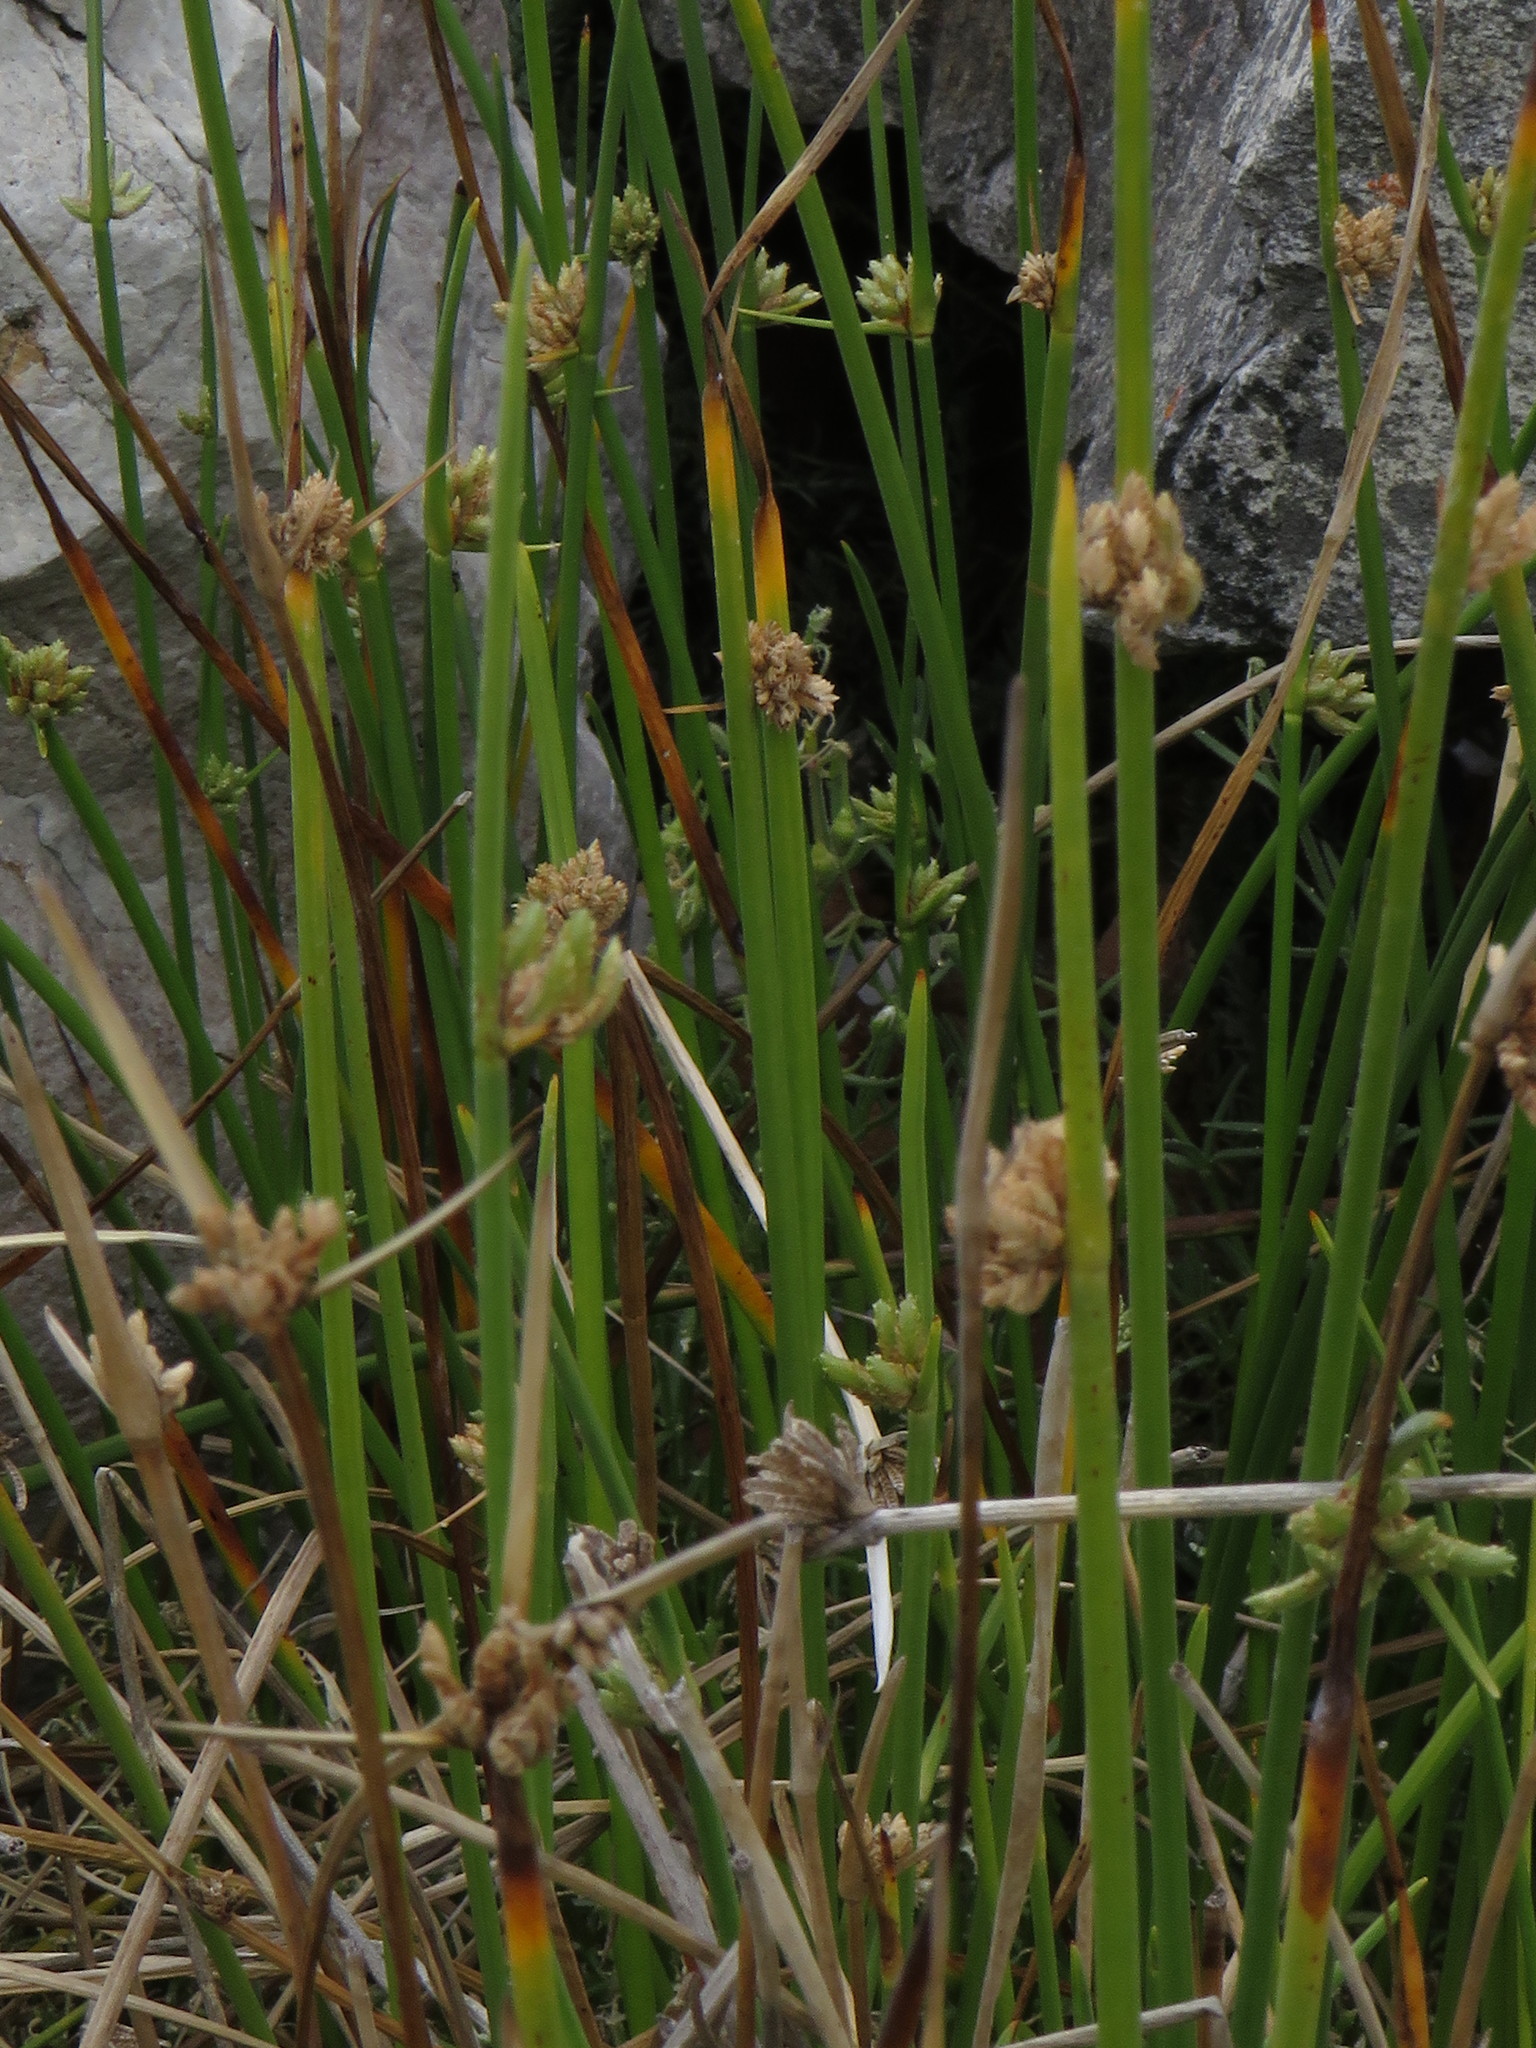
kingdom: Plantae
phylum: Tracheophyta
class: Liliopsida
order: Poales
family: Cyperaceae
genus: Cyperus
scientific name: Cyperus laevigatus
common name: Smooth flat sedge
